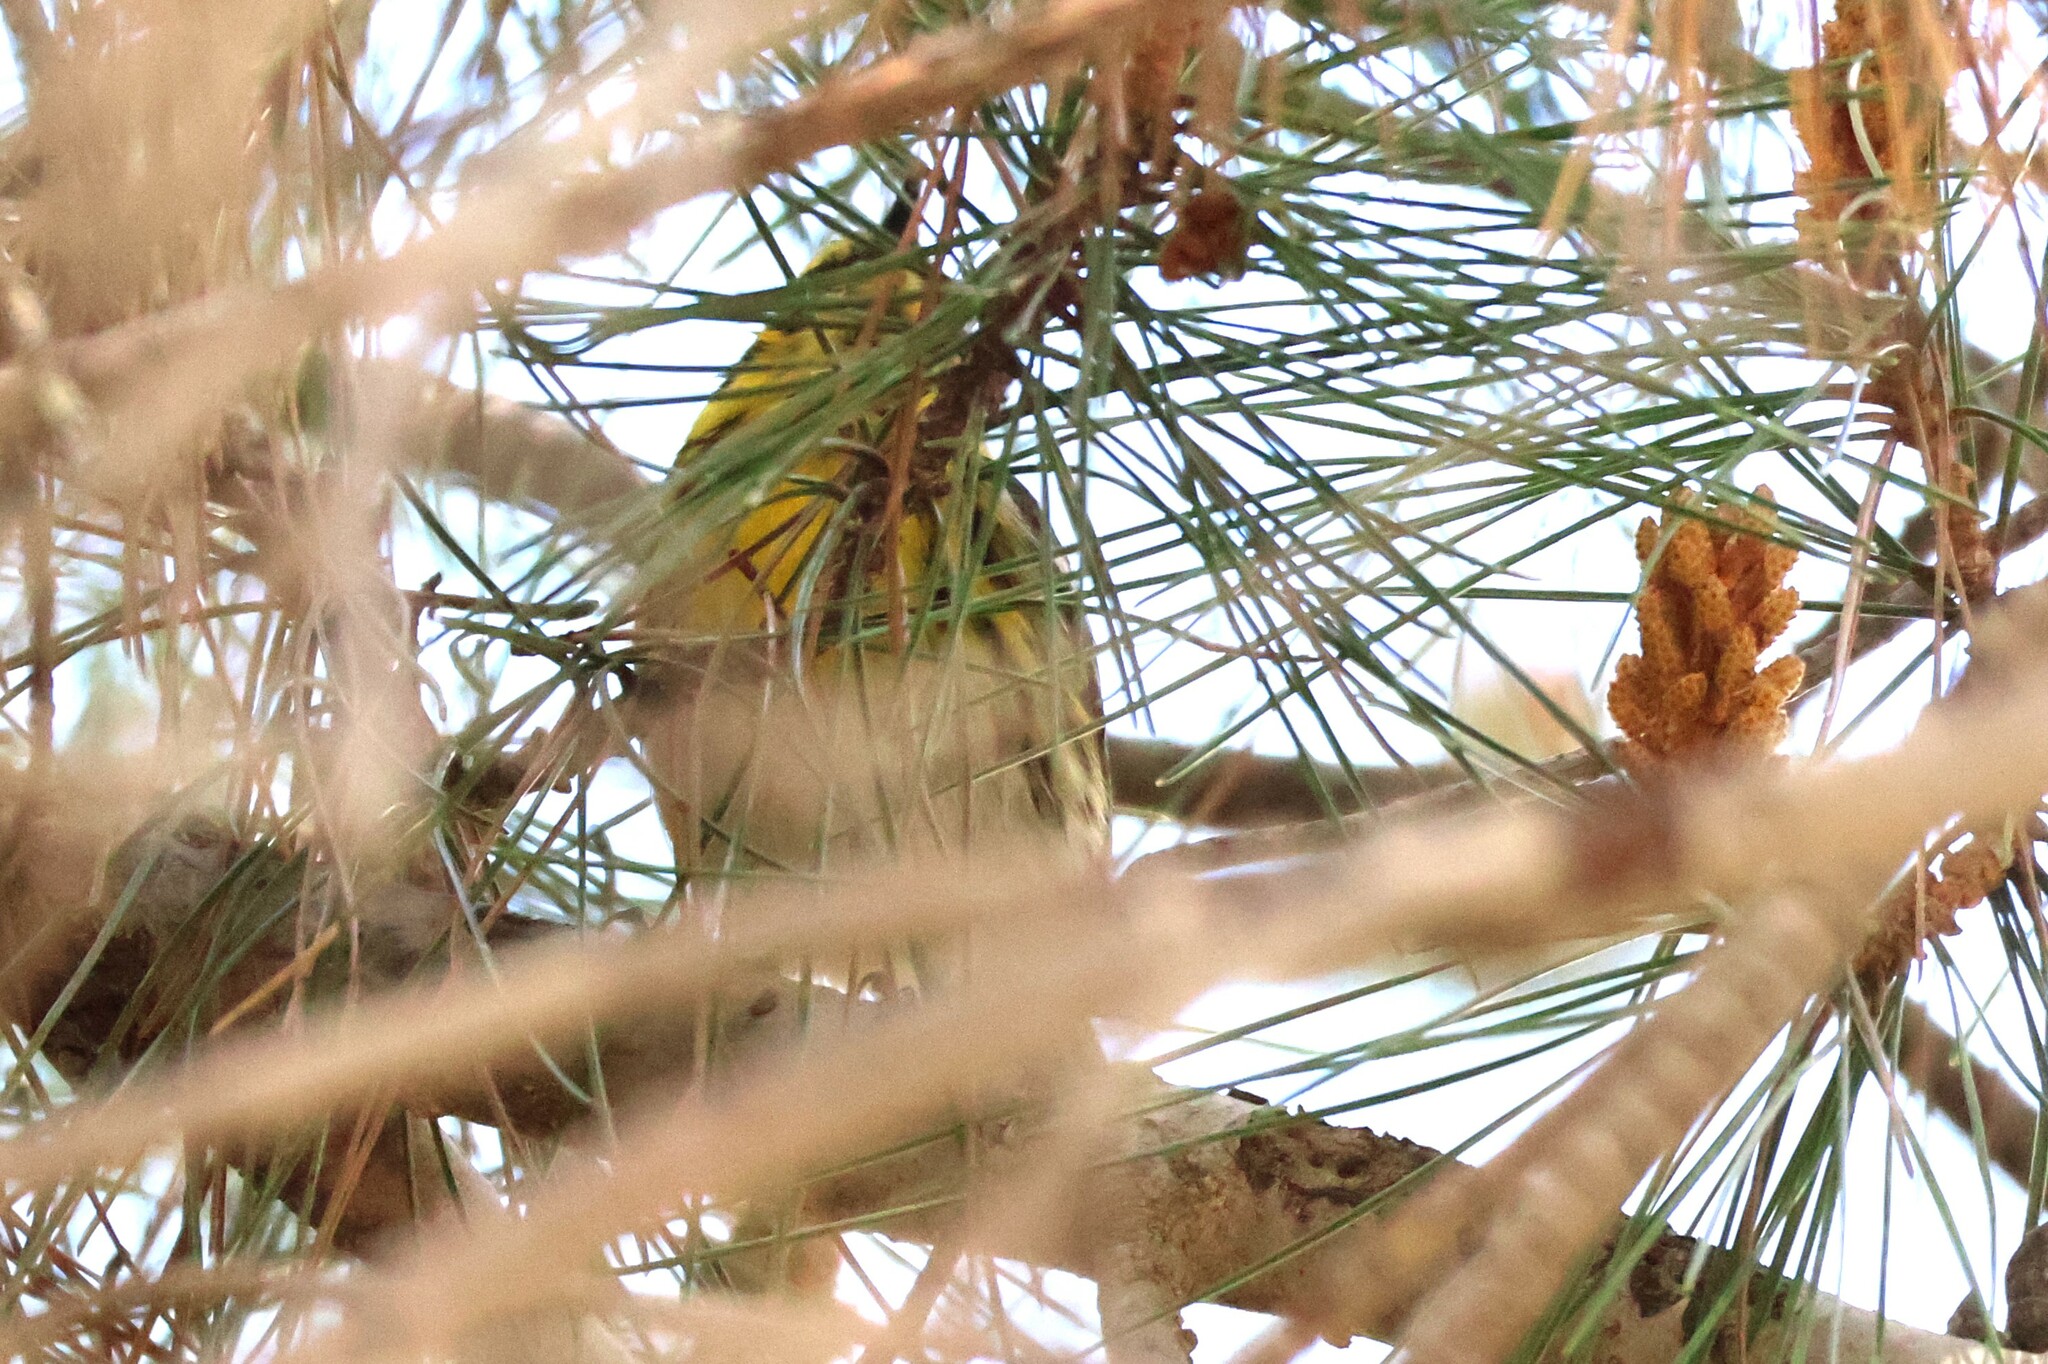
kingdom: Animalia
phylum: Chordata
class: Aves
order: Passeriformes
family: Parulidae
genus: Setophaga
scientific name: Setophaga townsendi
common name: Townsend's warbler
